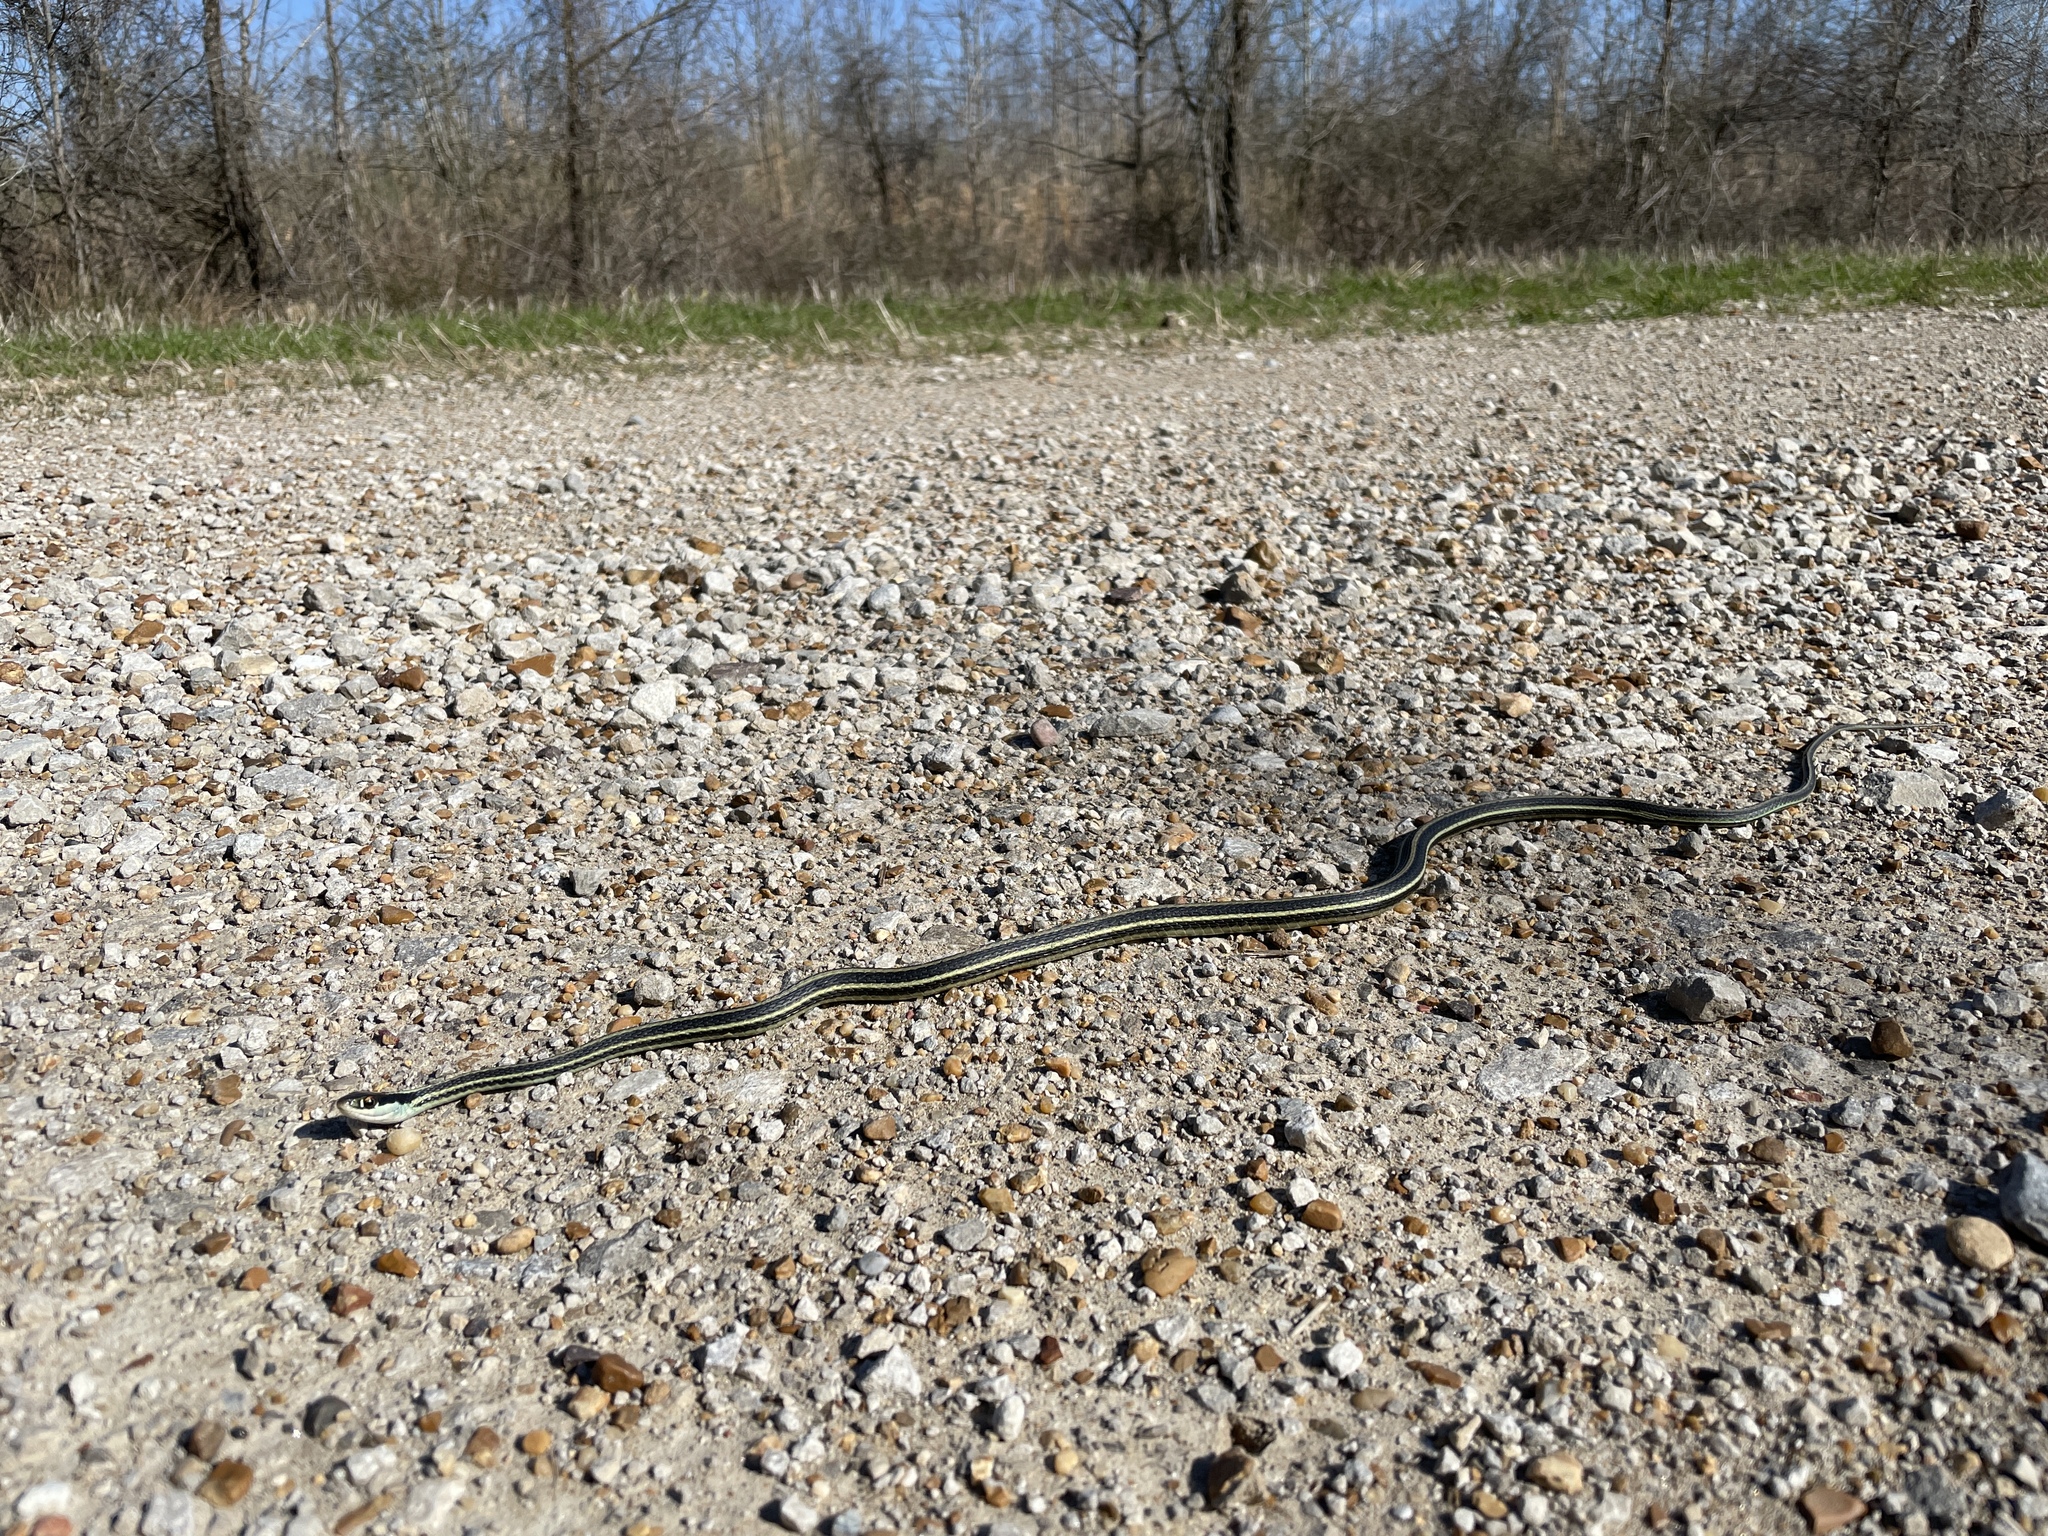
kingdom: Animalia
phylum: Chordata
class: Squamata
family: Colubridae
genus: Thamnophis
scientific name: Thamnophis proximus
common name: Western ribbon snake
